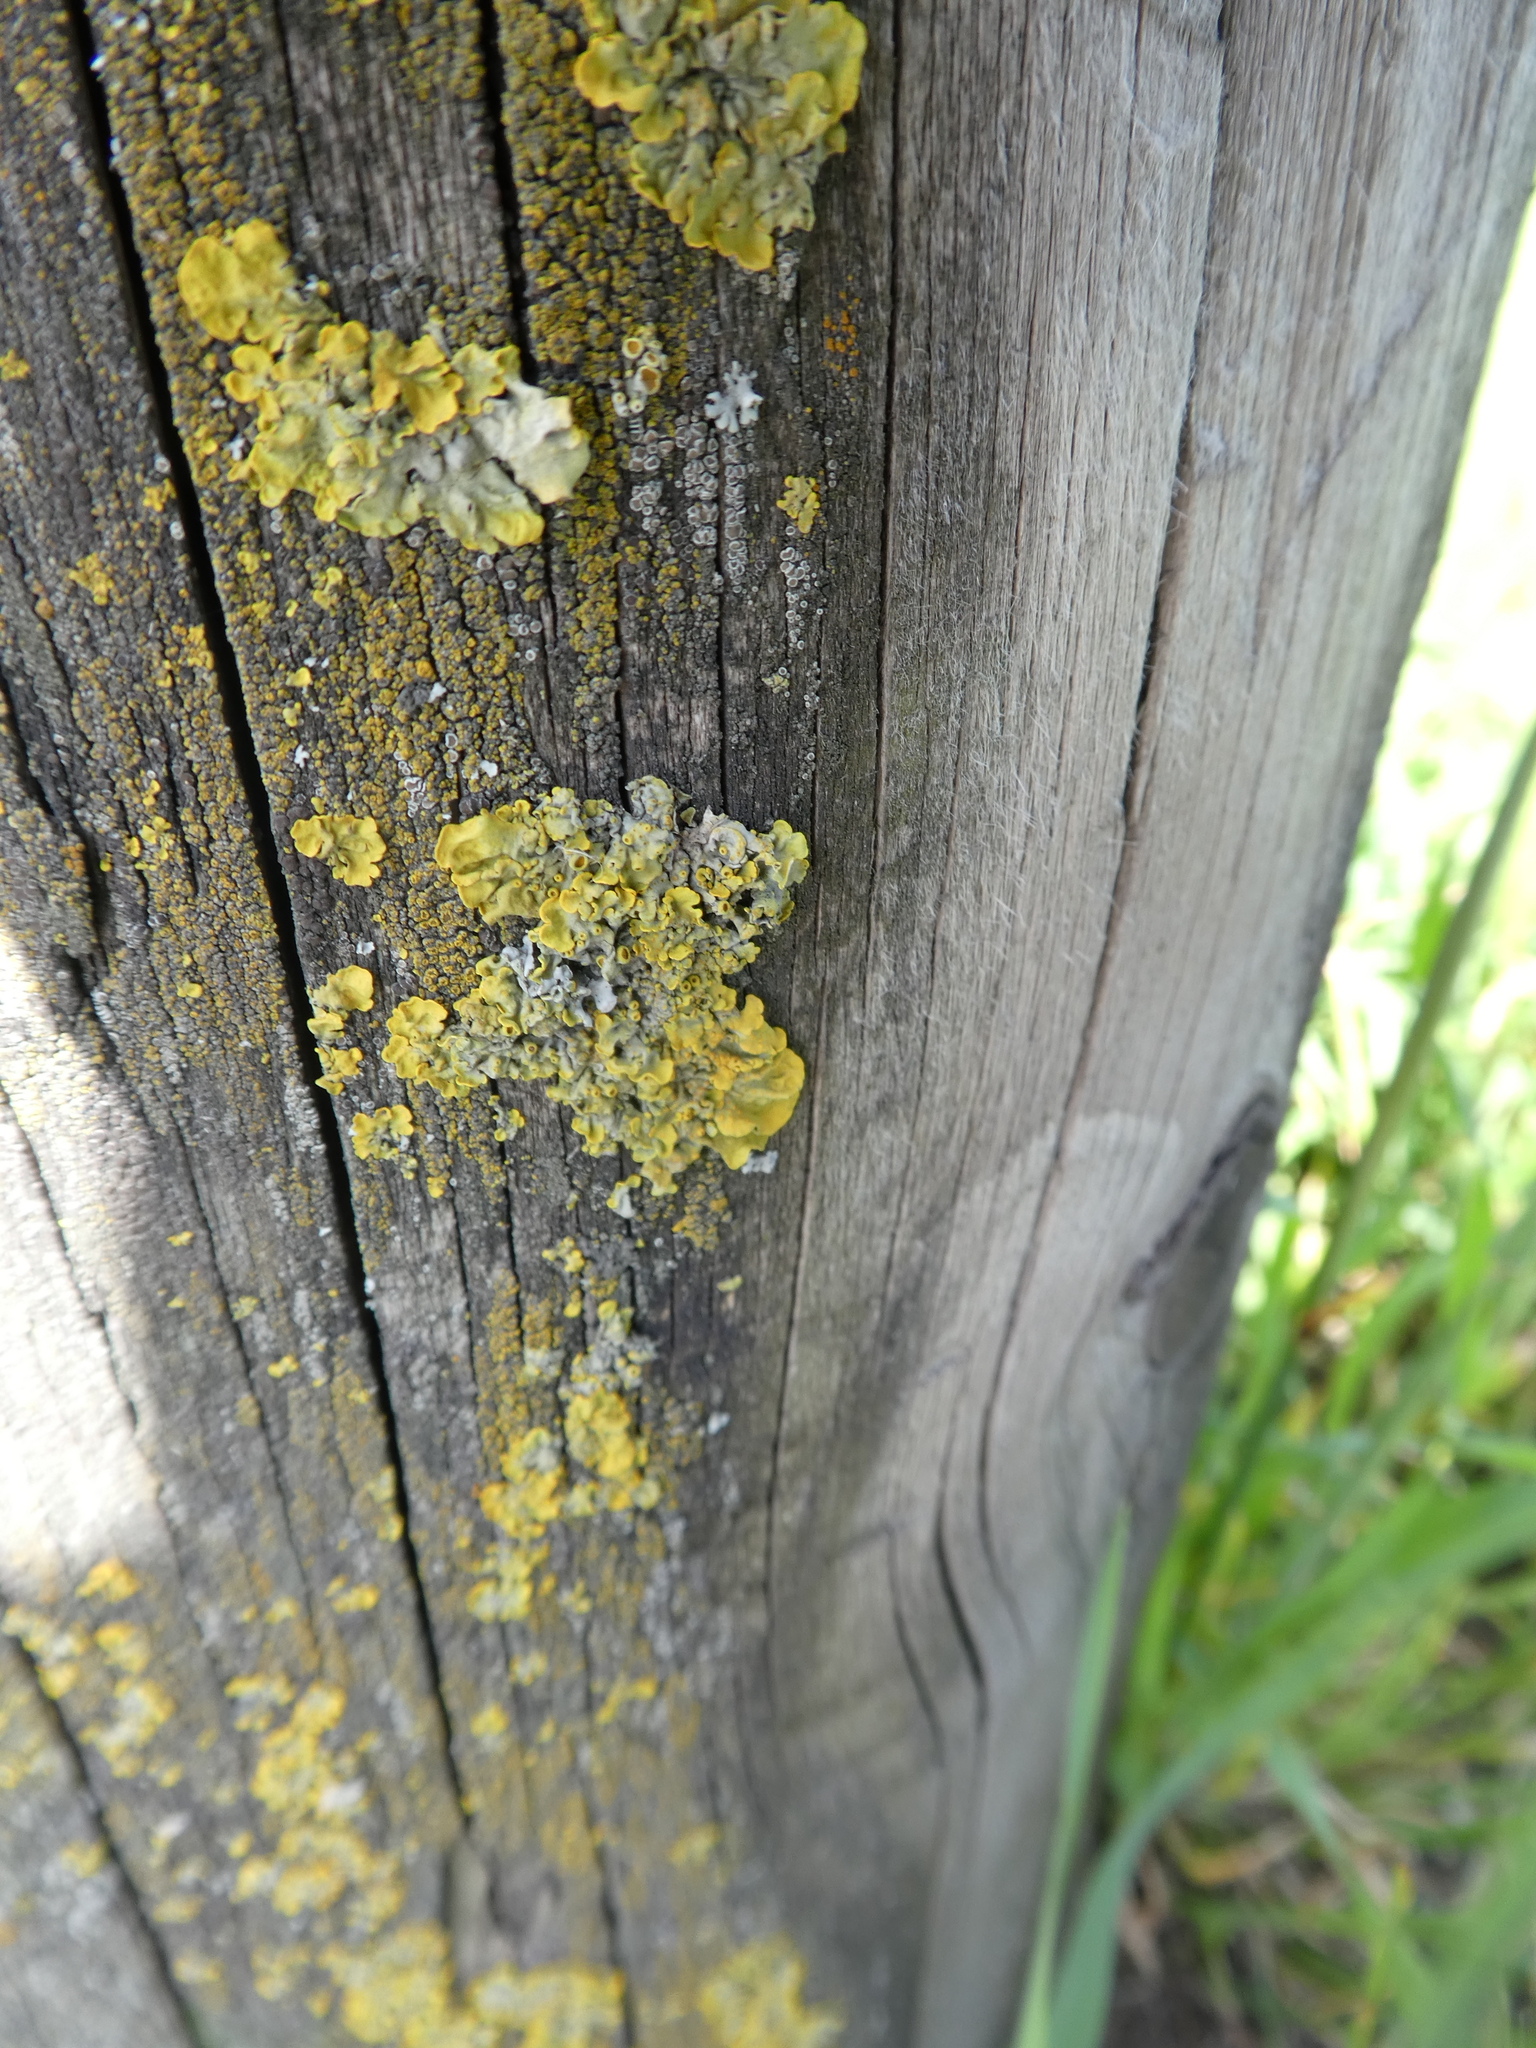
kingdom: Fungi
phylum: Ascomycota
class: Lecanoromycetes
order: Teloschistales
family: Teloschistaceae
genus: Xanthoria
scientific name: Xanthoria parietina
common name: Common orange lichen
